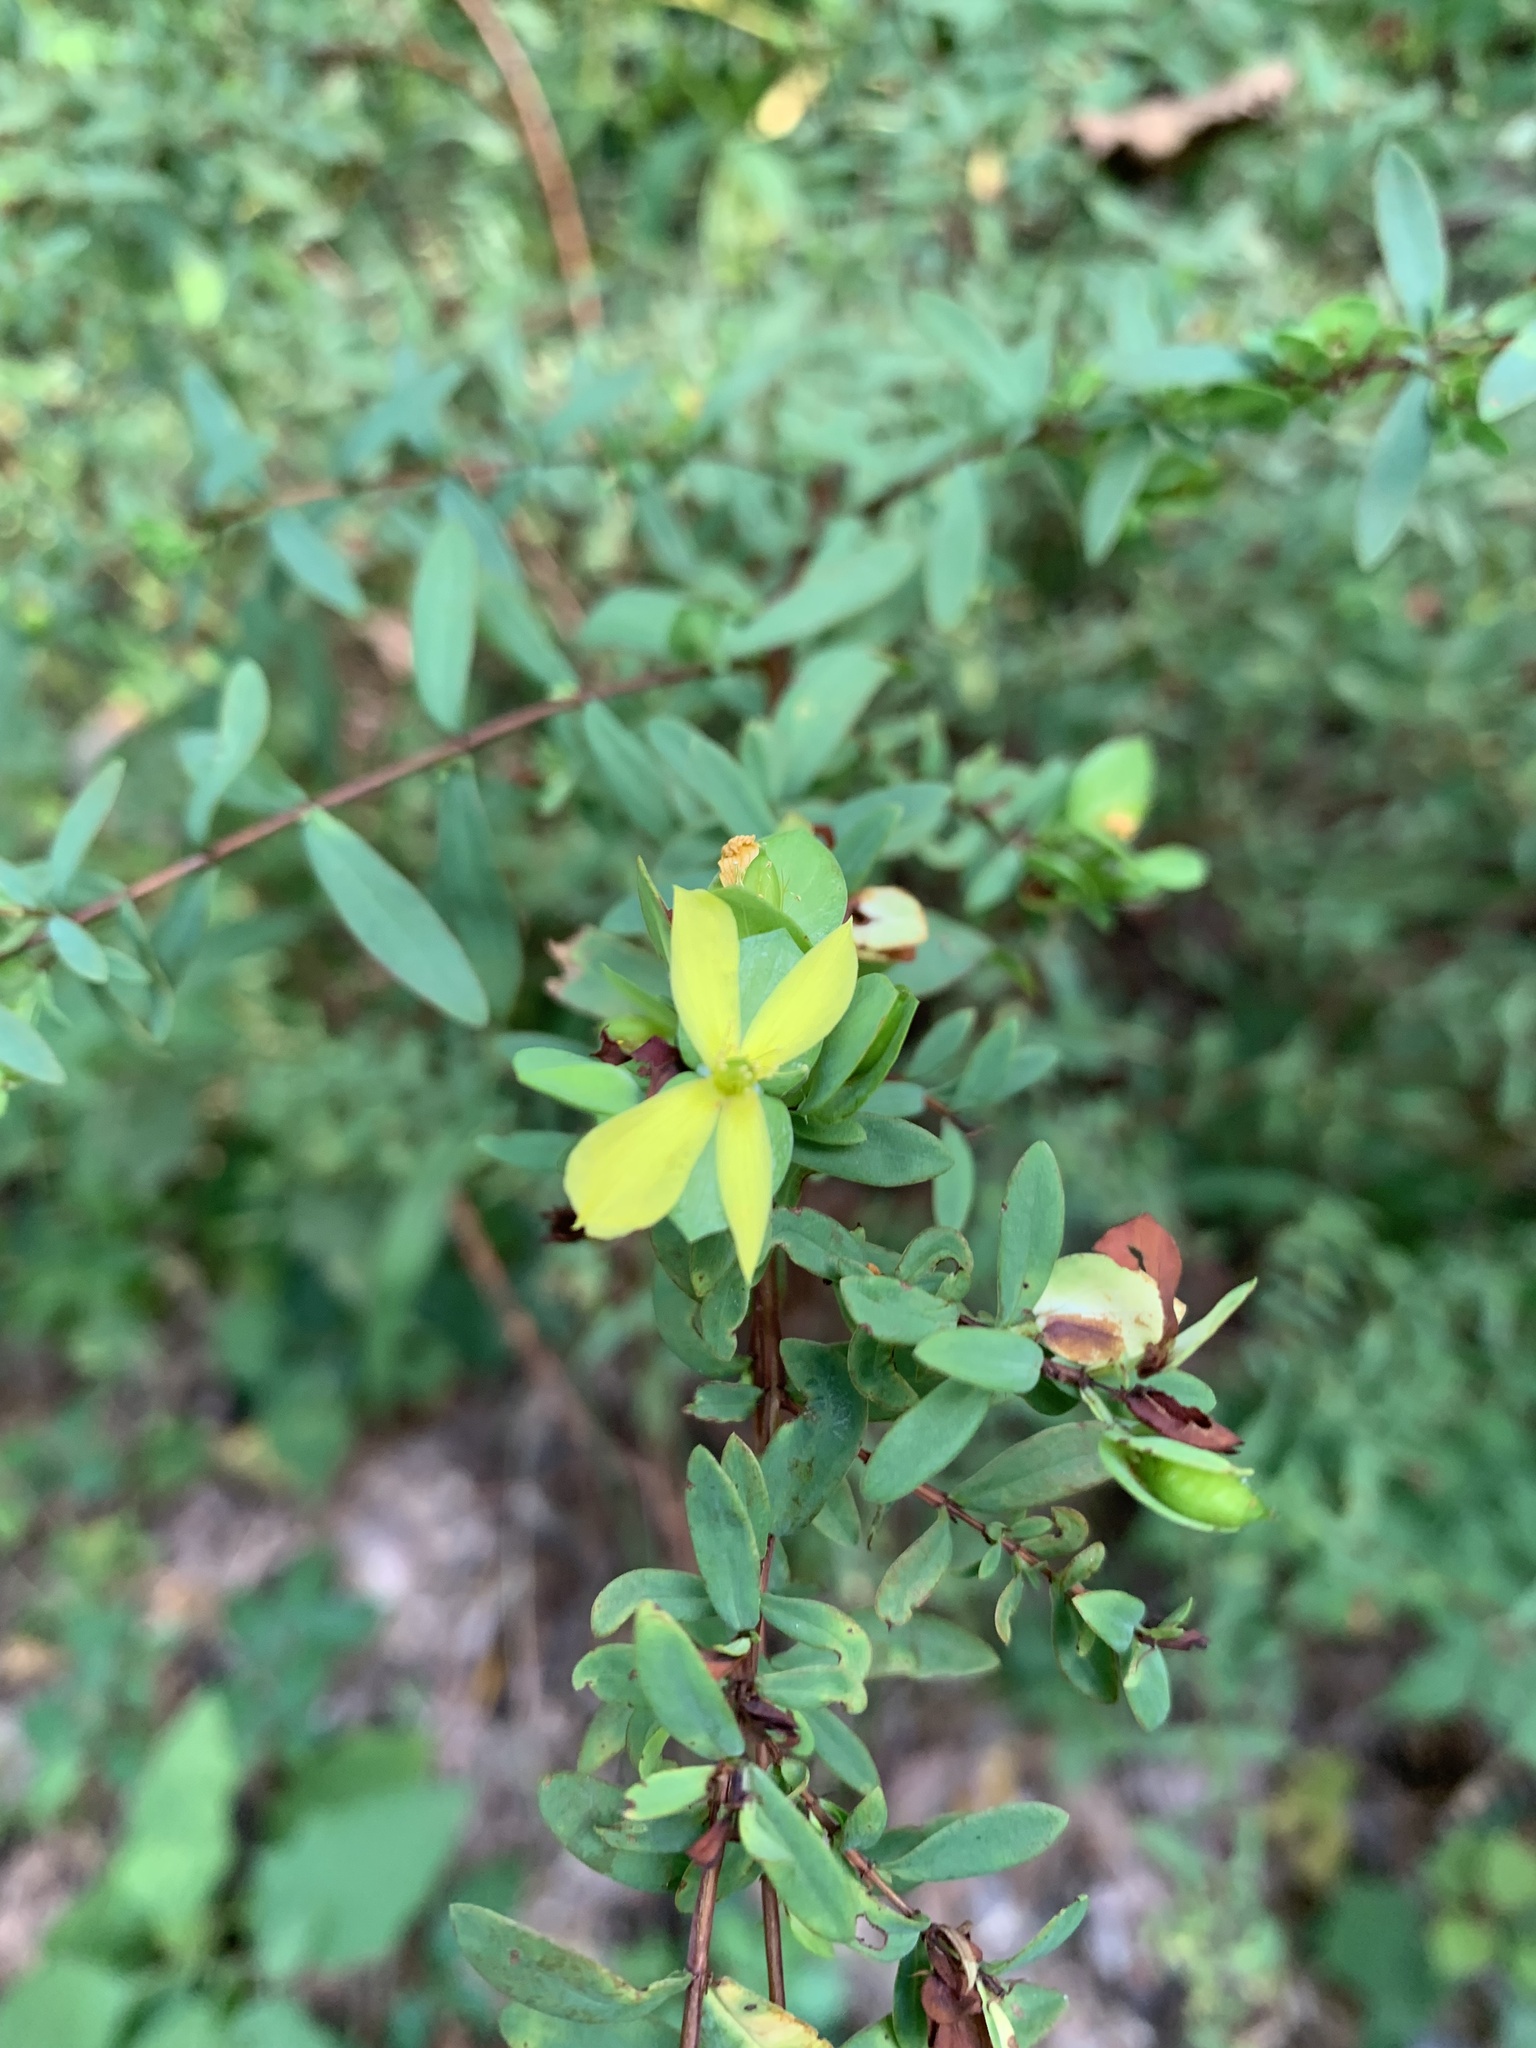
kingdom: Plantae
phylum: Tracheophyta
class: Magnoliopsida
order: Malpighiales
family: Hypericaceae
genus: Hypericum
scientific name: Hypericum hypericoides
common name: St. andrew's cross
